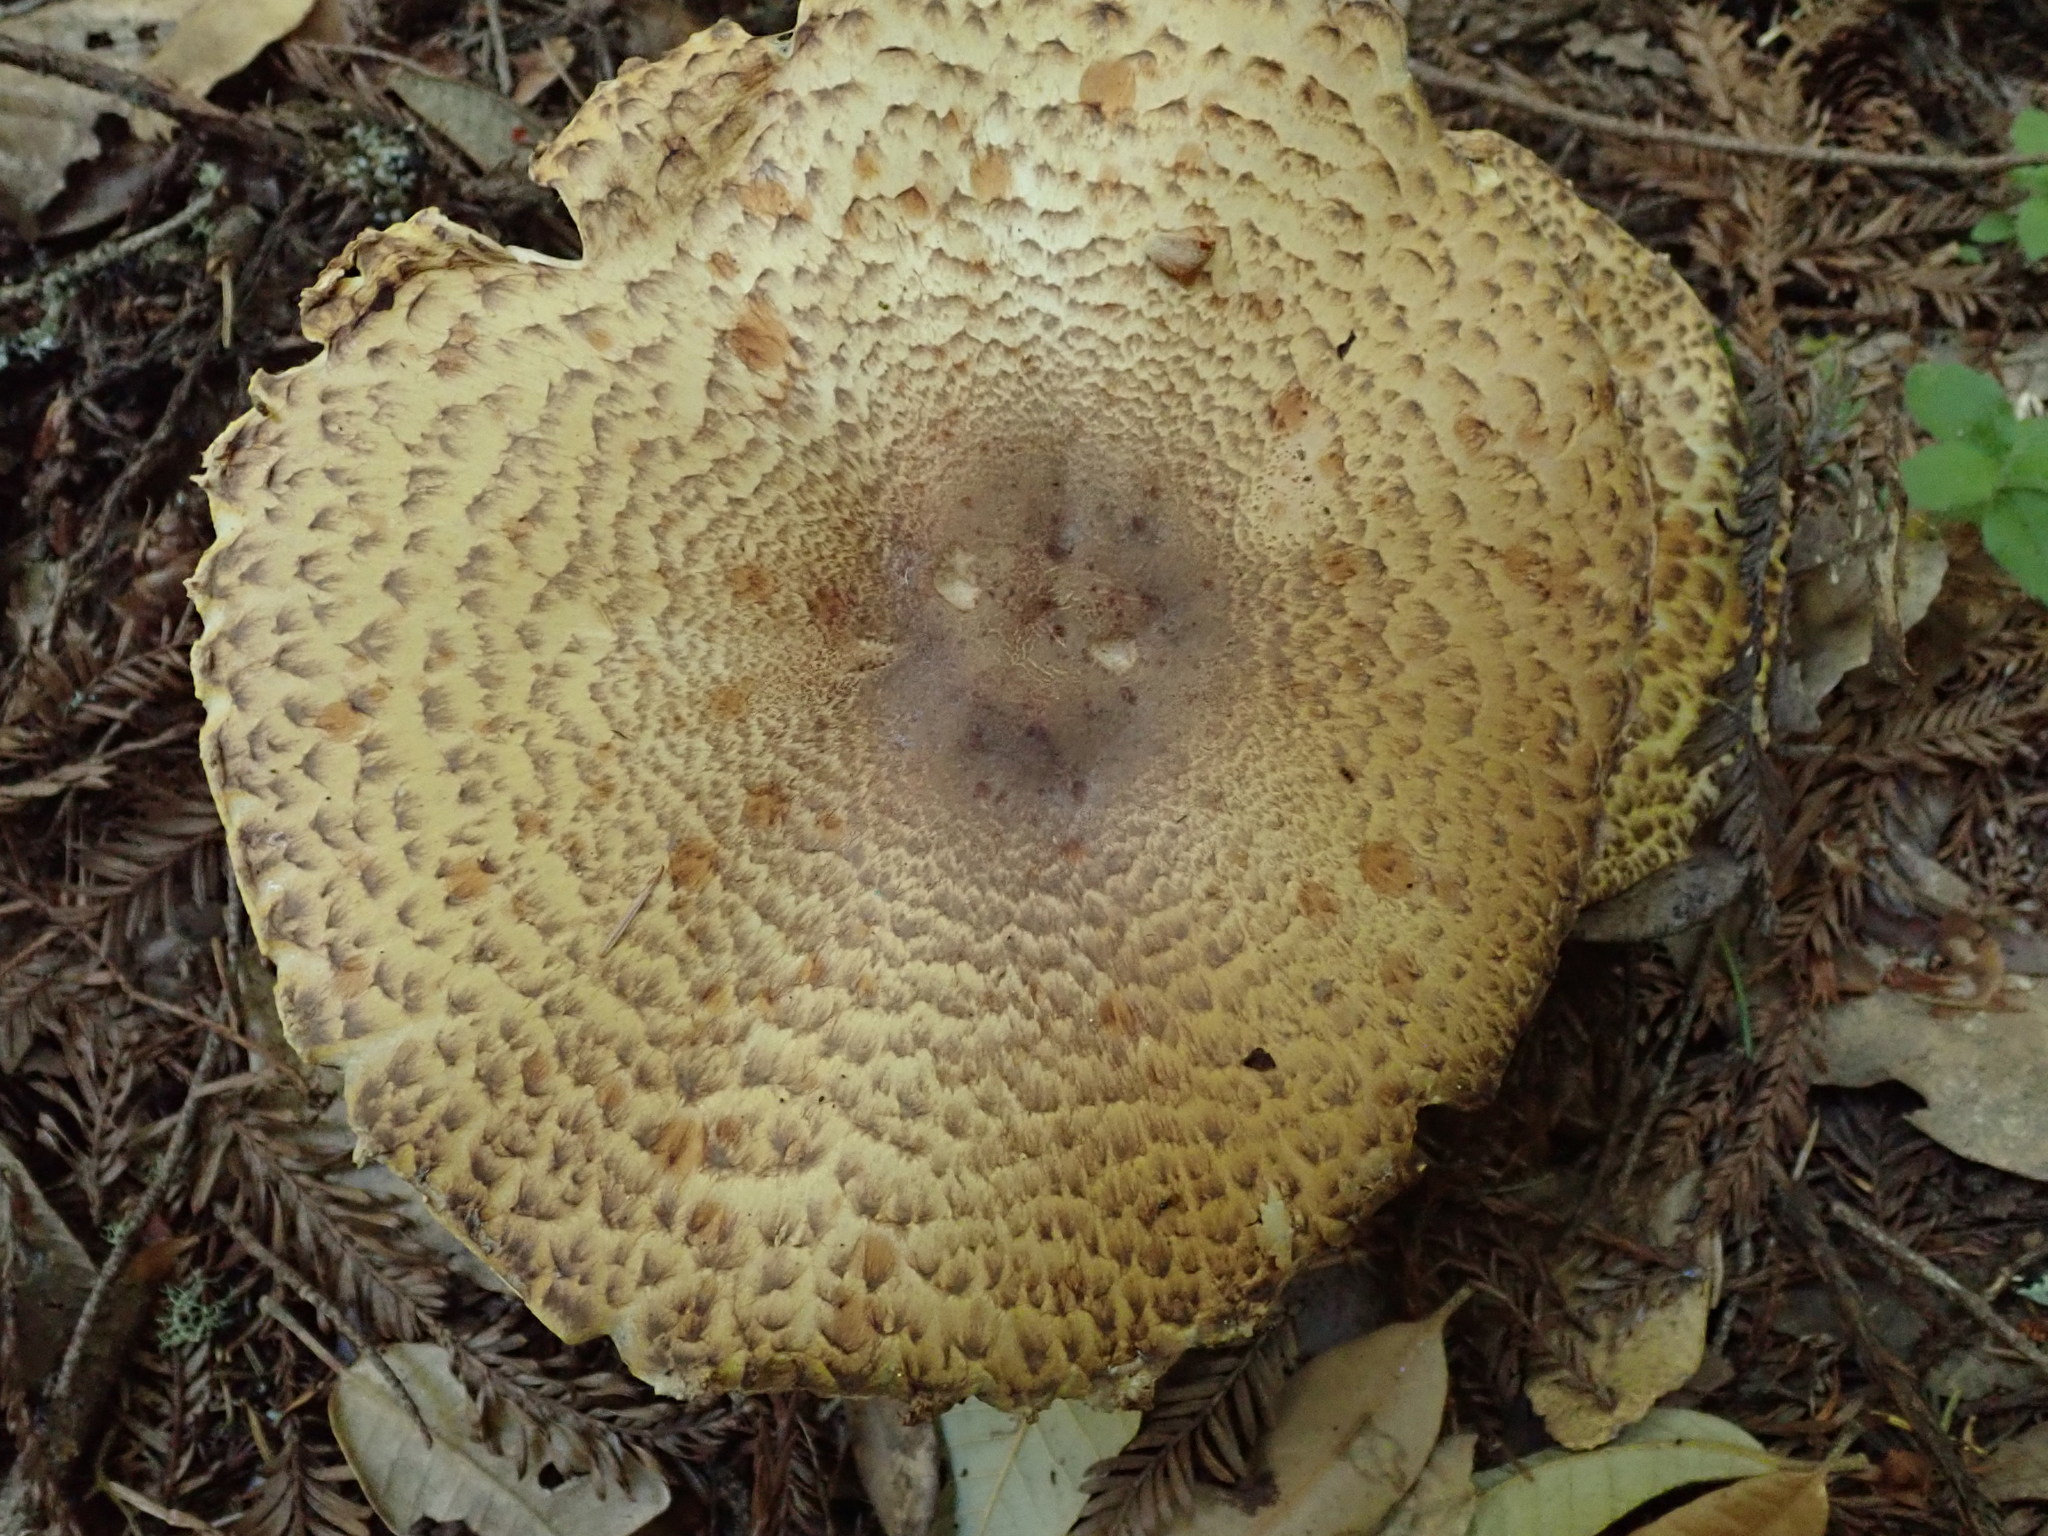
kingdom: Fungi
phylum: Basidiomycota
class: Agaricomycetes
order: Agaricales
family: Agaricaceae
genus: Agaricus
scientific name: Agaricus augustus
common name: Prince
